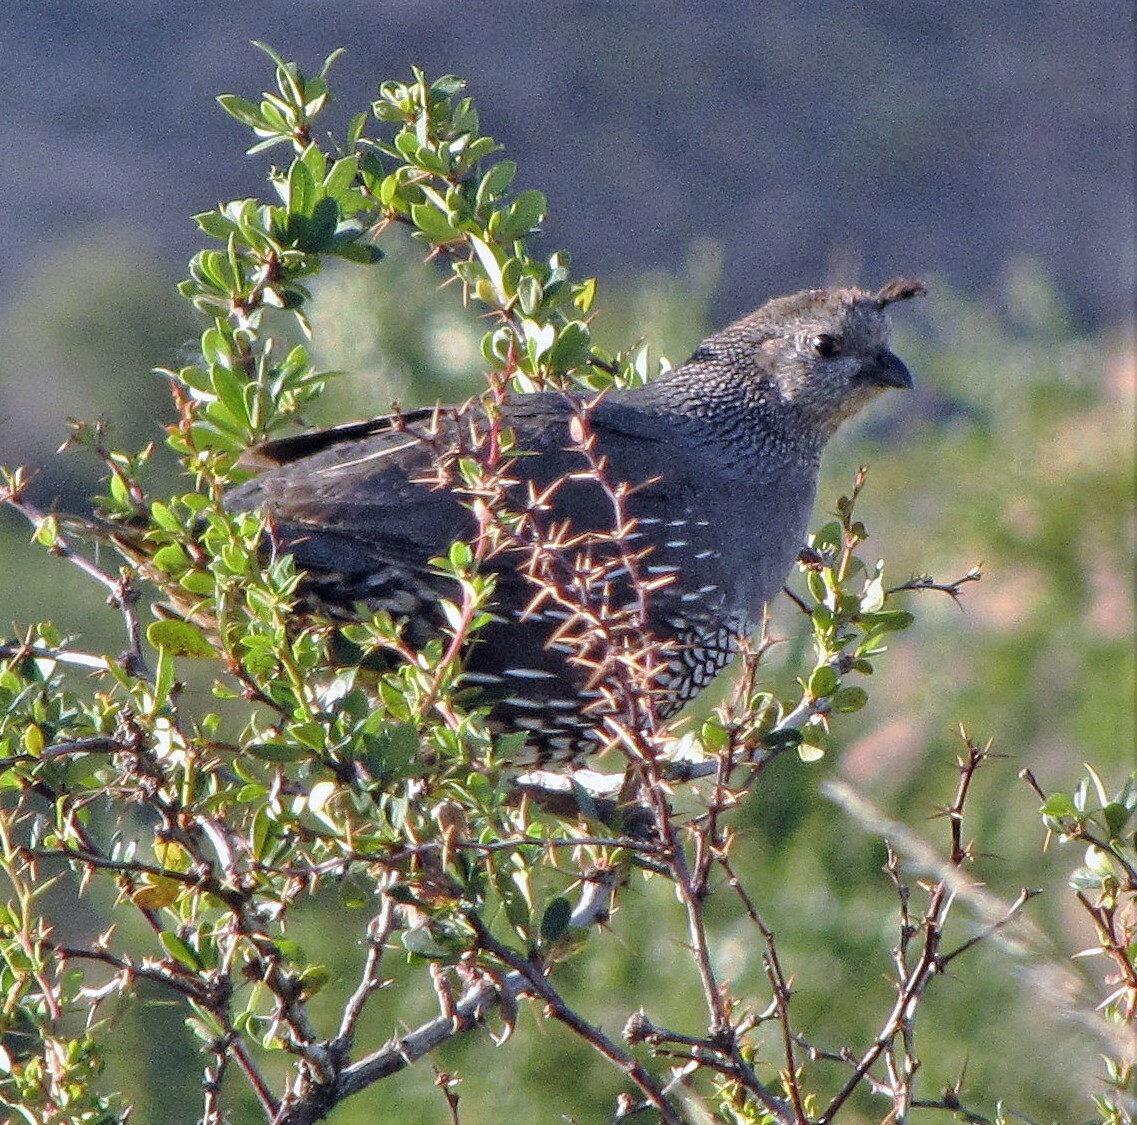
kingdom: Animalia
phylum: Chordata
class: Aves
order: Galliformes
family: Odontophoridae
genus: Callipepla
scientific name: Callipepla californica
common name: California quail
